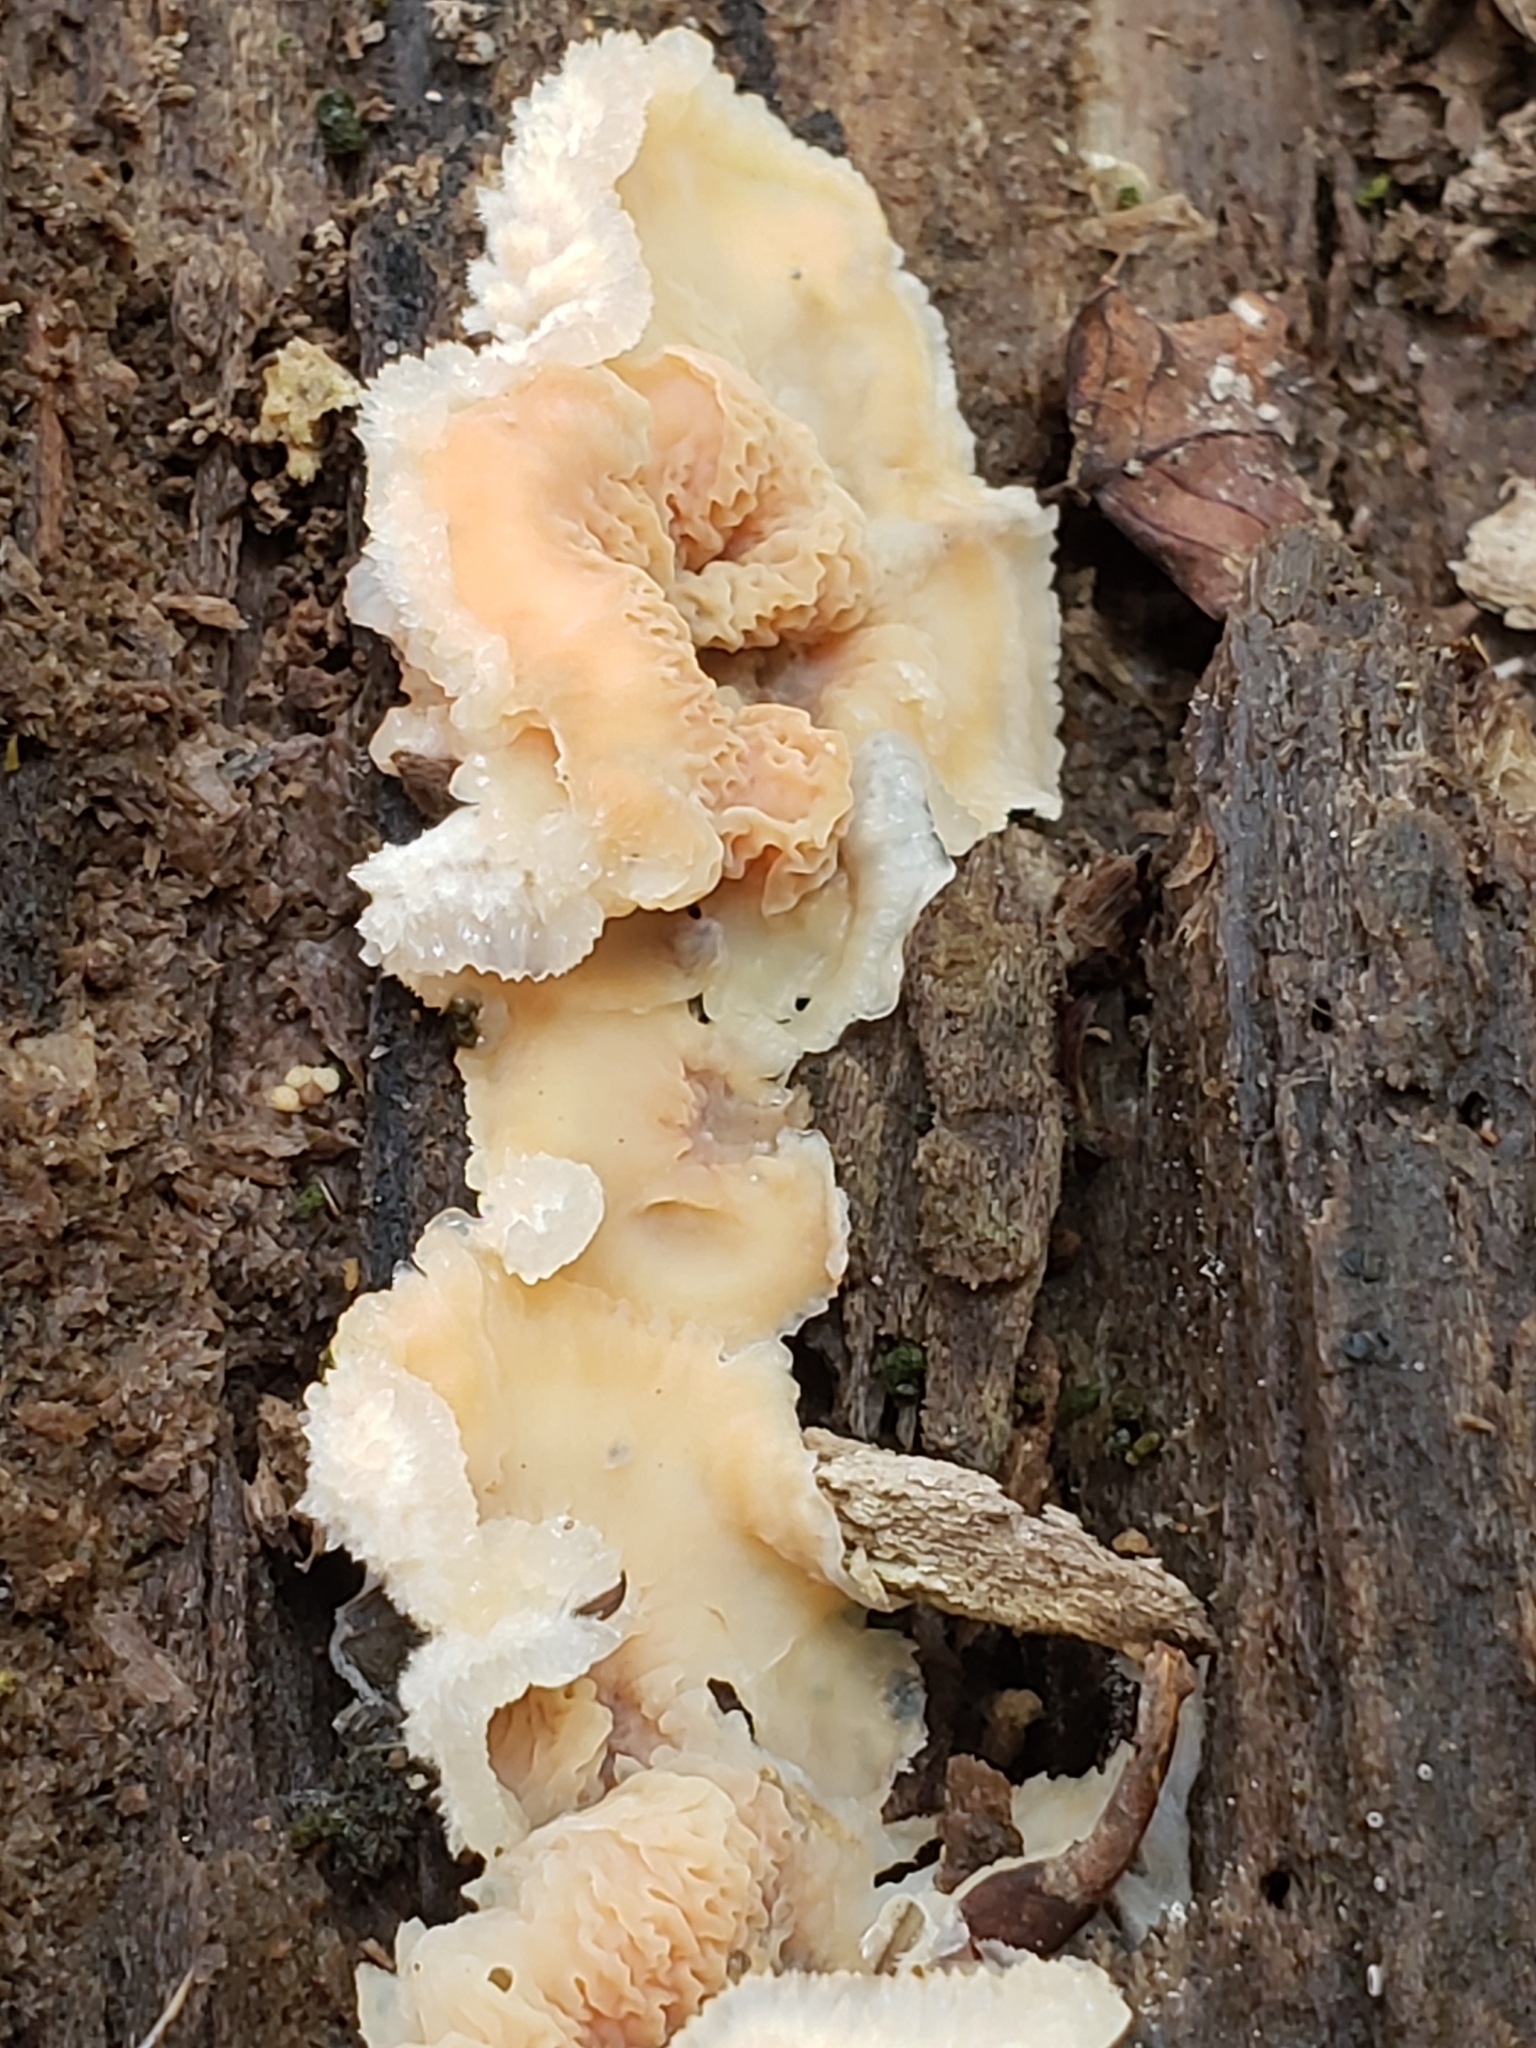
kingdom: Fungi
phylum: Basidiomycota
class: Agaricomycetes
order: Polyporales
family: Meruliaceae
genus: Phlebia
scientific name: Phlebia tremellosa
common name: Jelly rot
